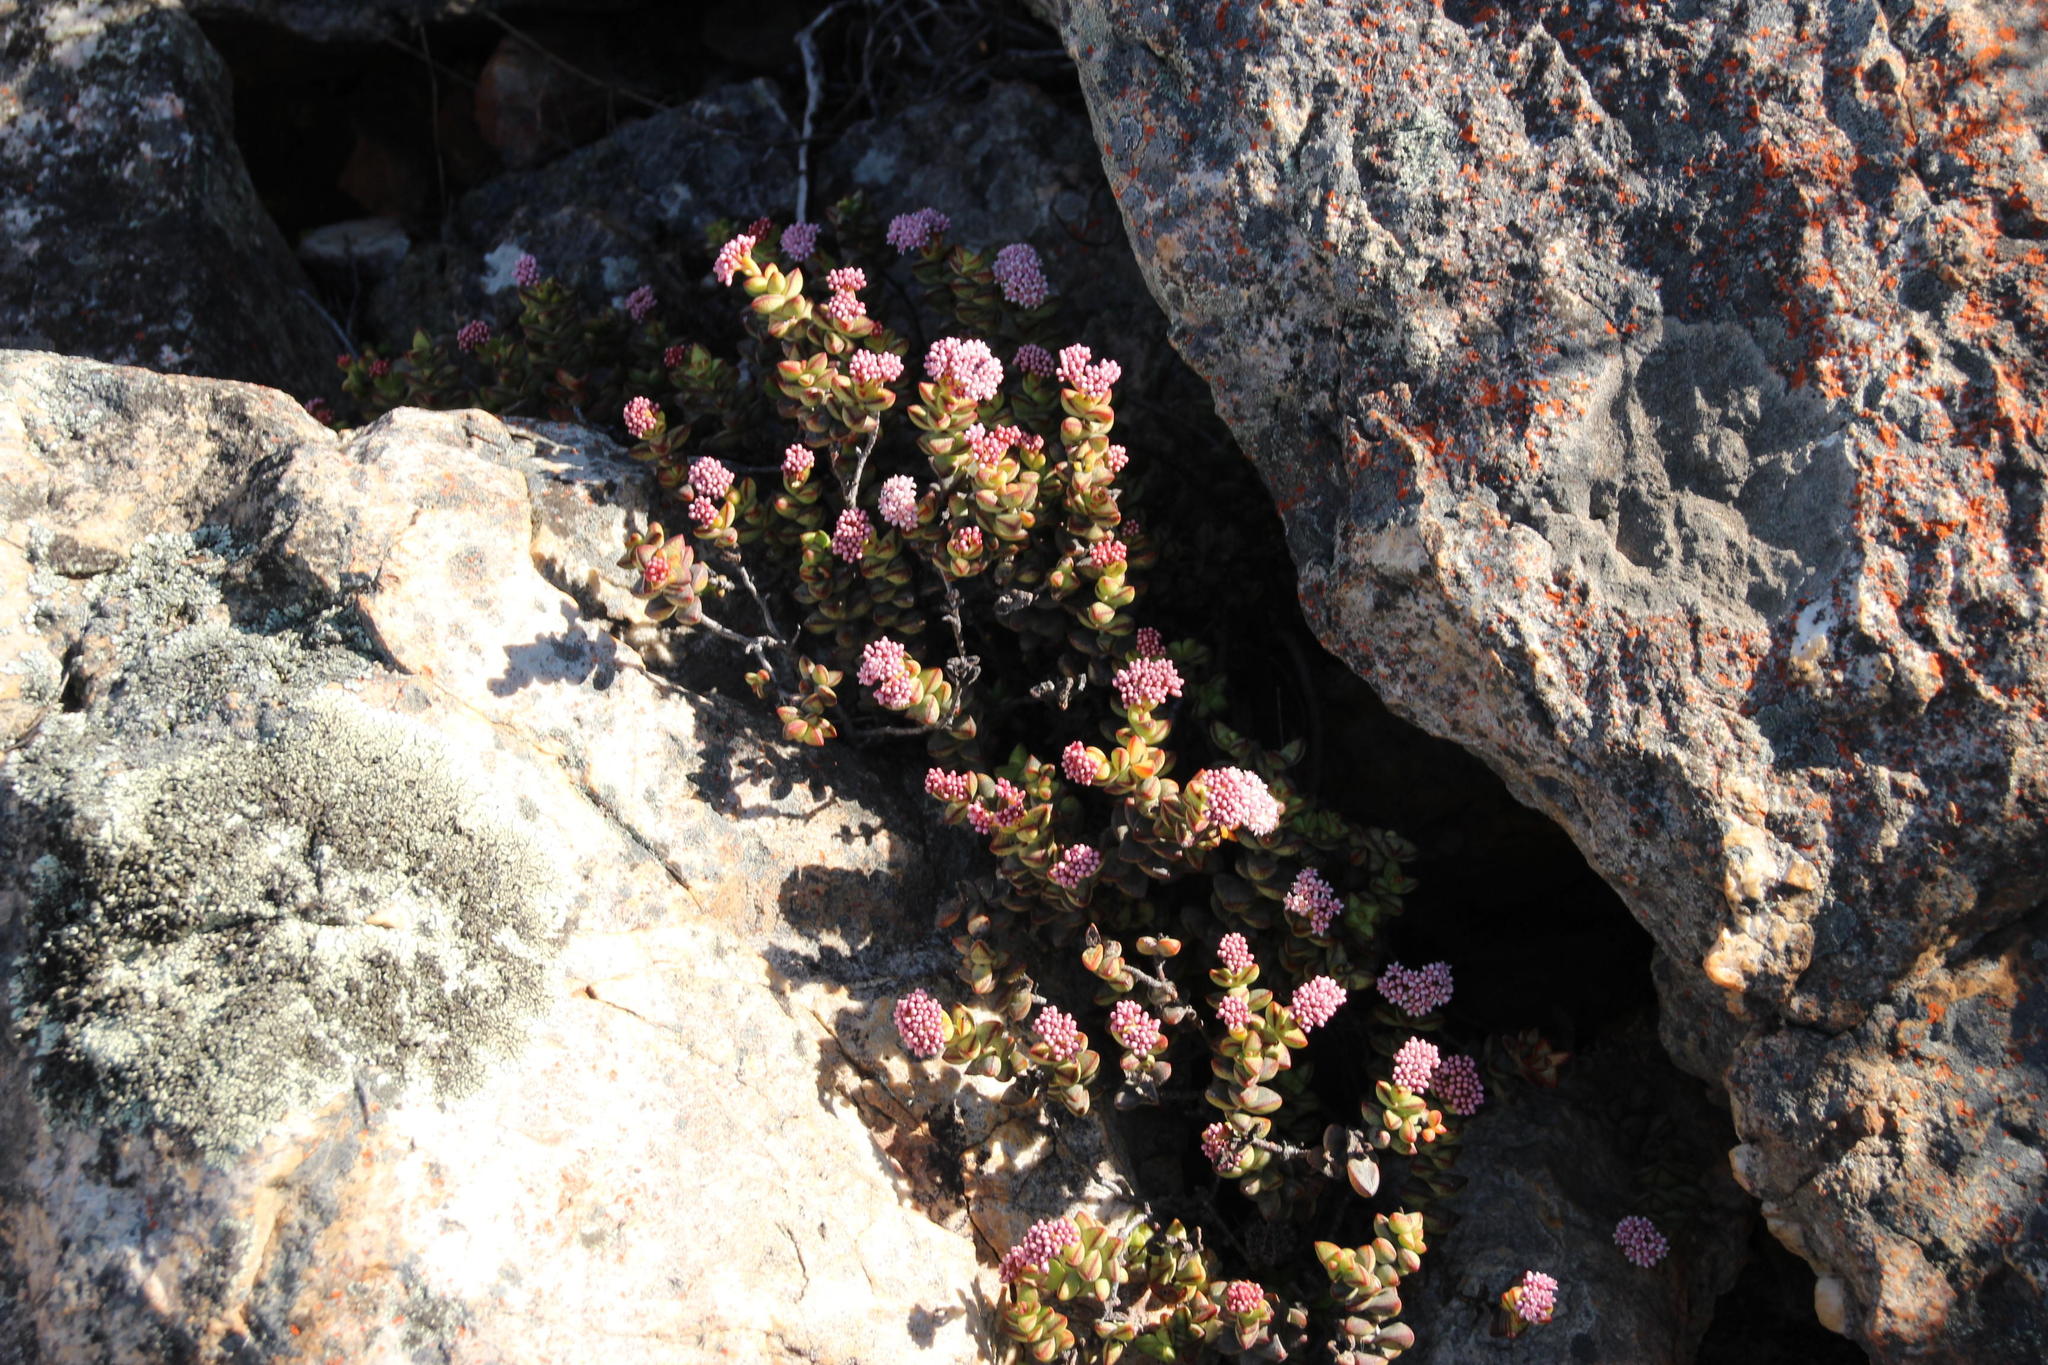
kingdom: Plantae
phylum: Tracheophyta
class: Magnoliopsida
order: Saxifragales
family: Crassulaceae
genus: Crassula
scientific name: Crassula rupestris
